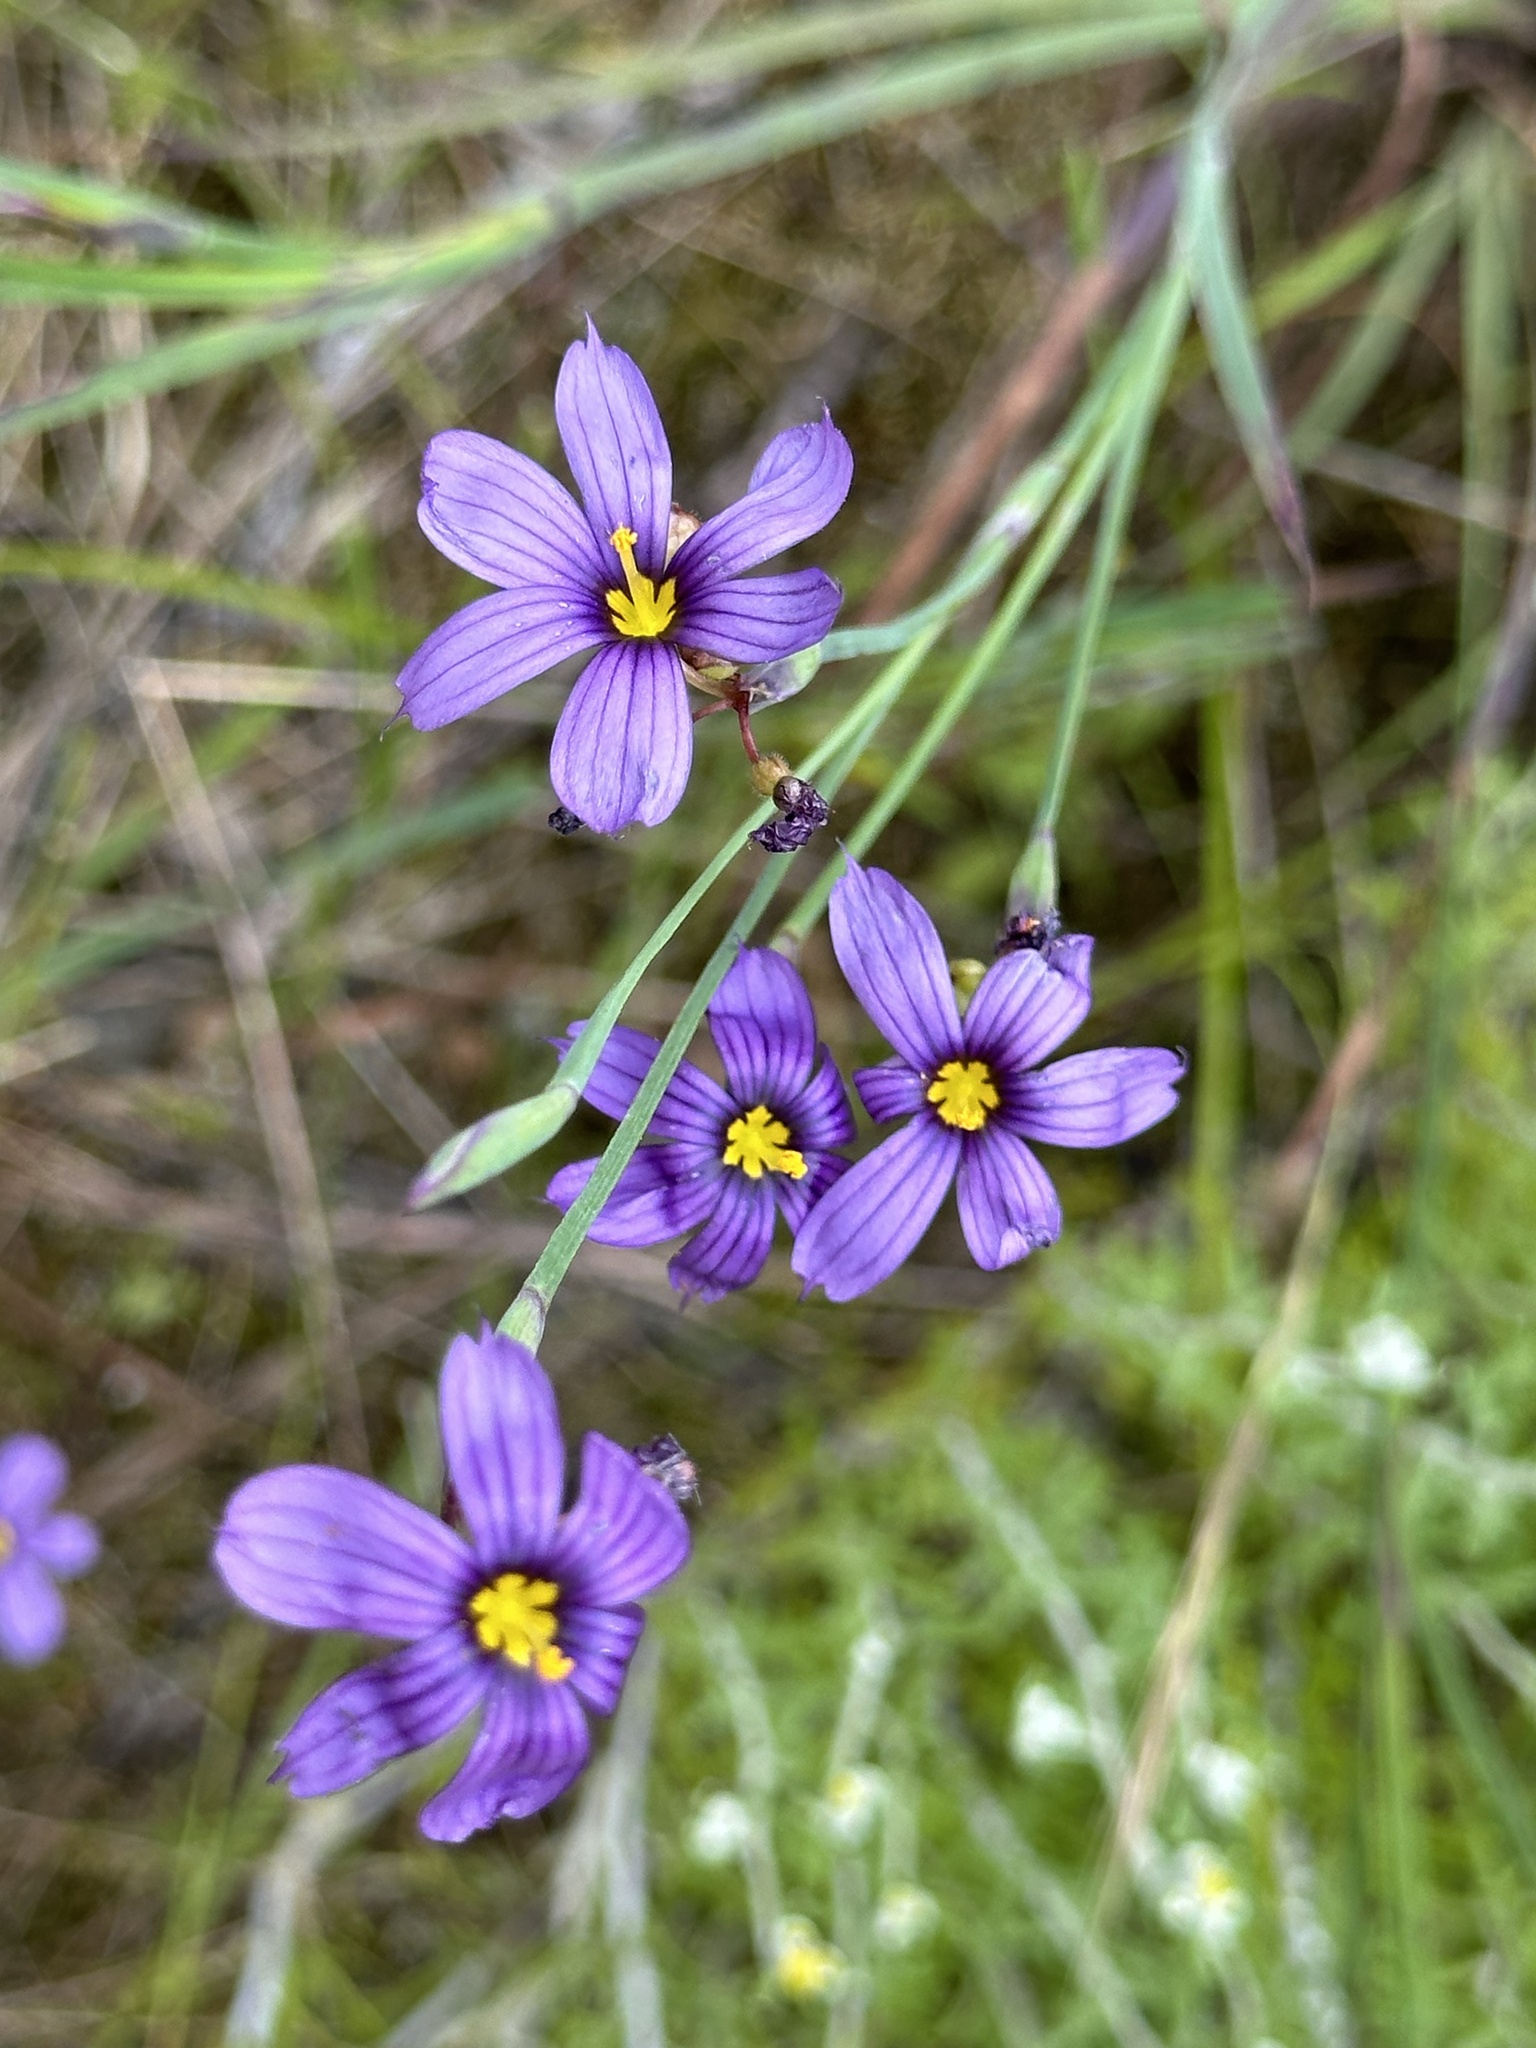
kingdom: Plantae
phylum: Tracheophyta
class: Liliopsida
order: Asparagales
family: Iridaceae
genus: Sisyrinchium
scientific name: Sisyrinchium bellum
